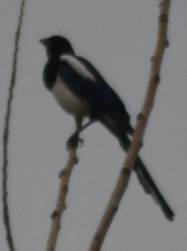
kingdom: Animalia
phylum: Chordata
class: Aves
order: Passeriformes
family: Corvidae
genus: Pica
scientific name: Pica pica
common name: Eurasian magpie
